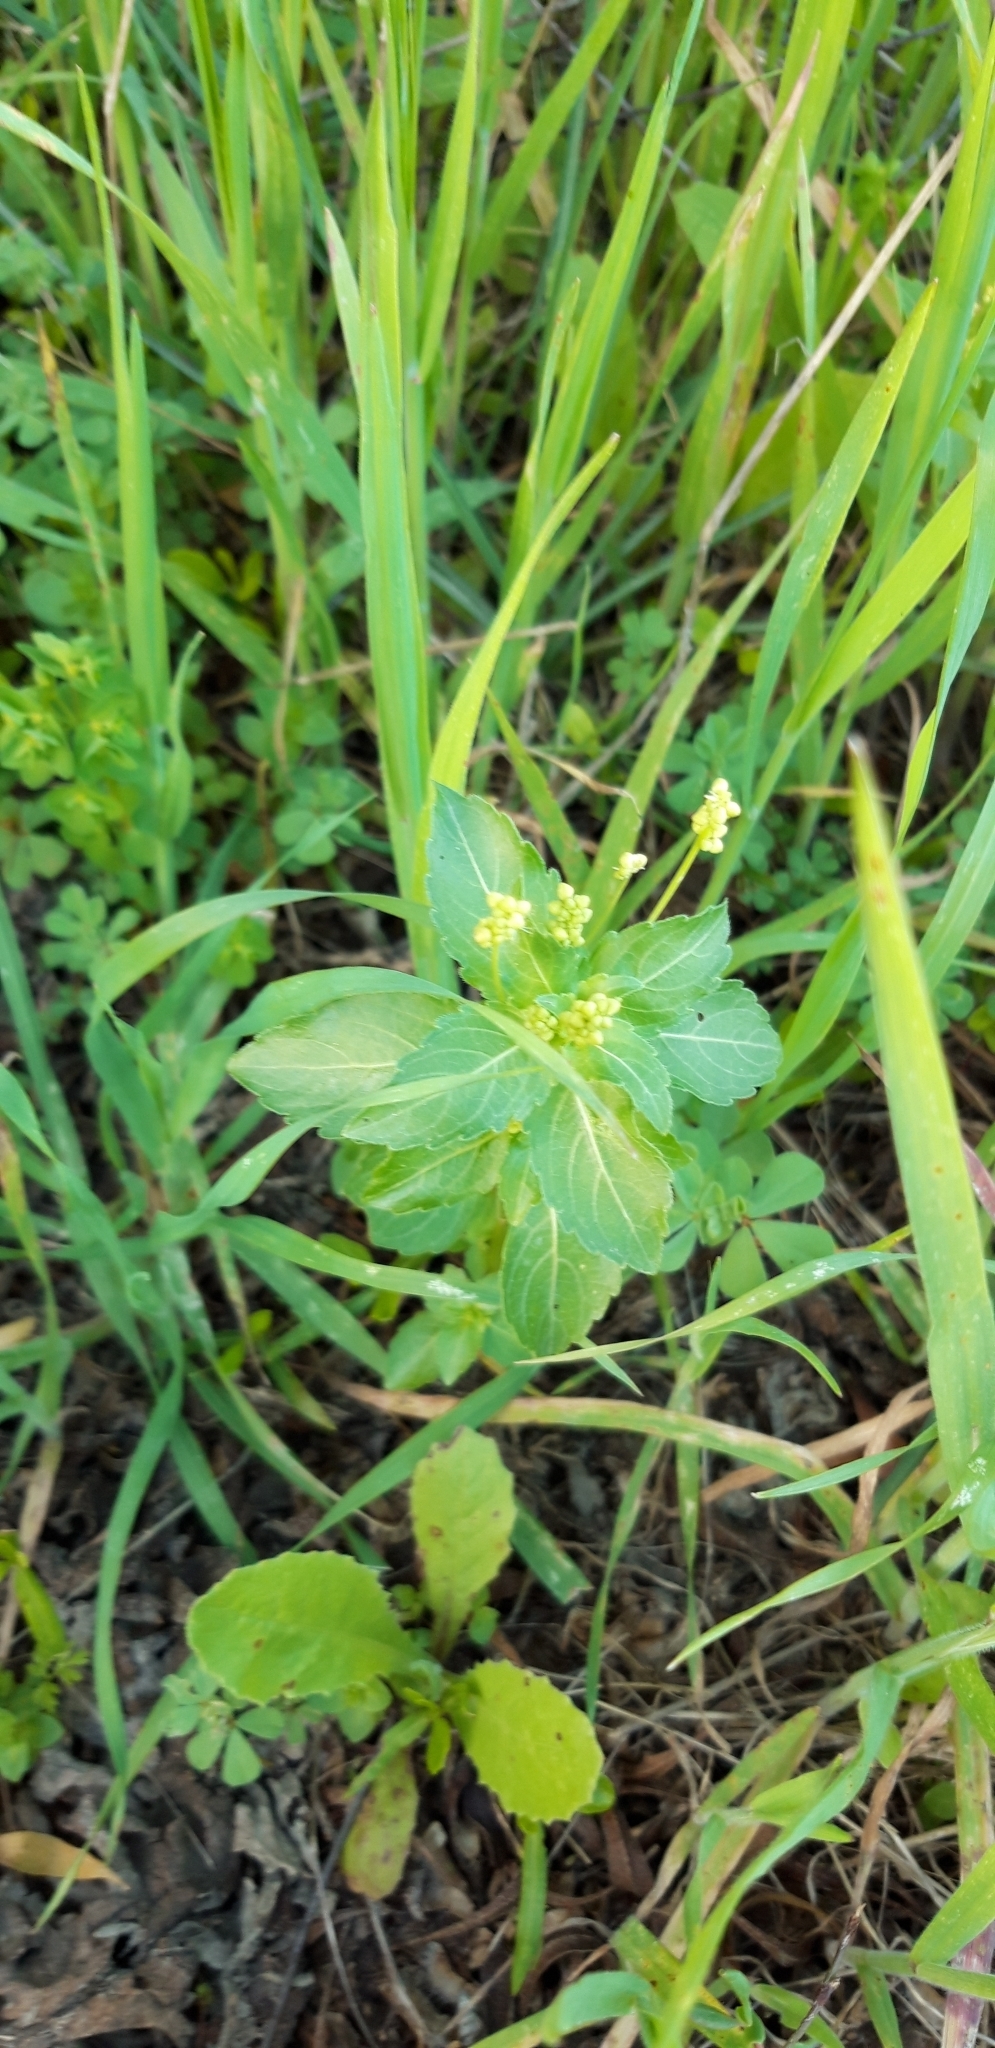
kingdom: Plantae
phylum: Tracheophyta
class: Magnoliopsida
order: Malpighiales
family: Euphorbiaceae
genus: Mercurialis
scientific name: Mercurialis annua
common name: Annual mercury
